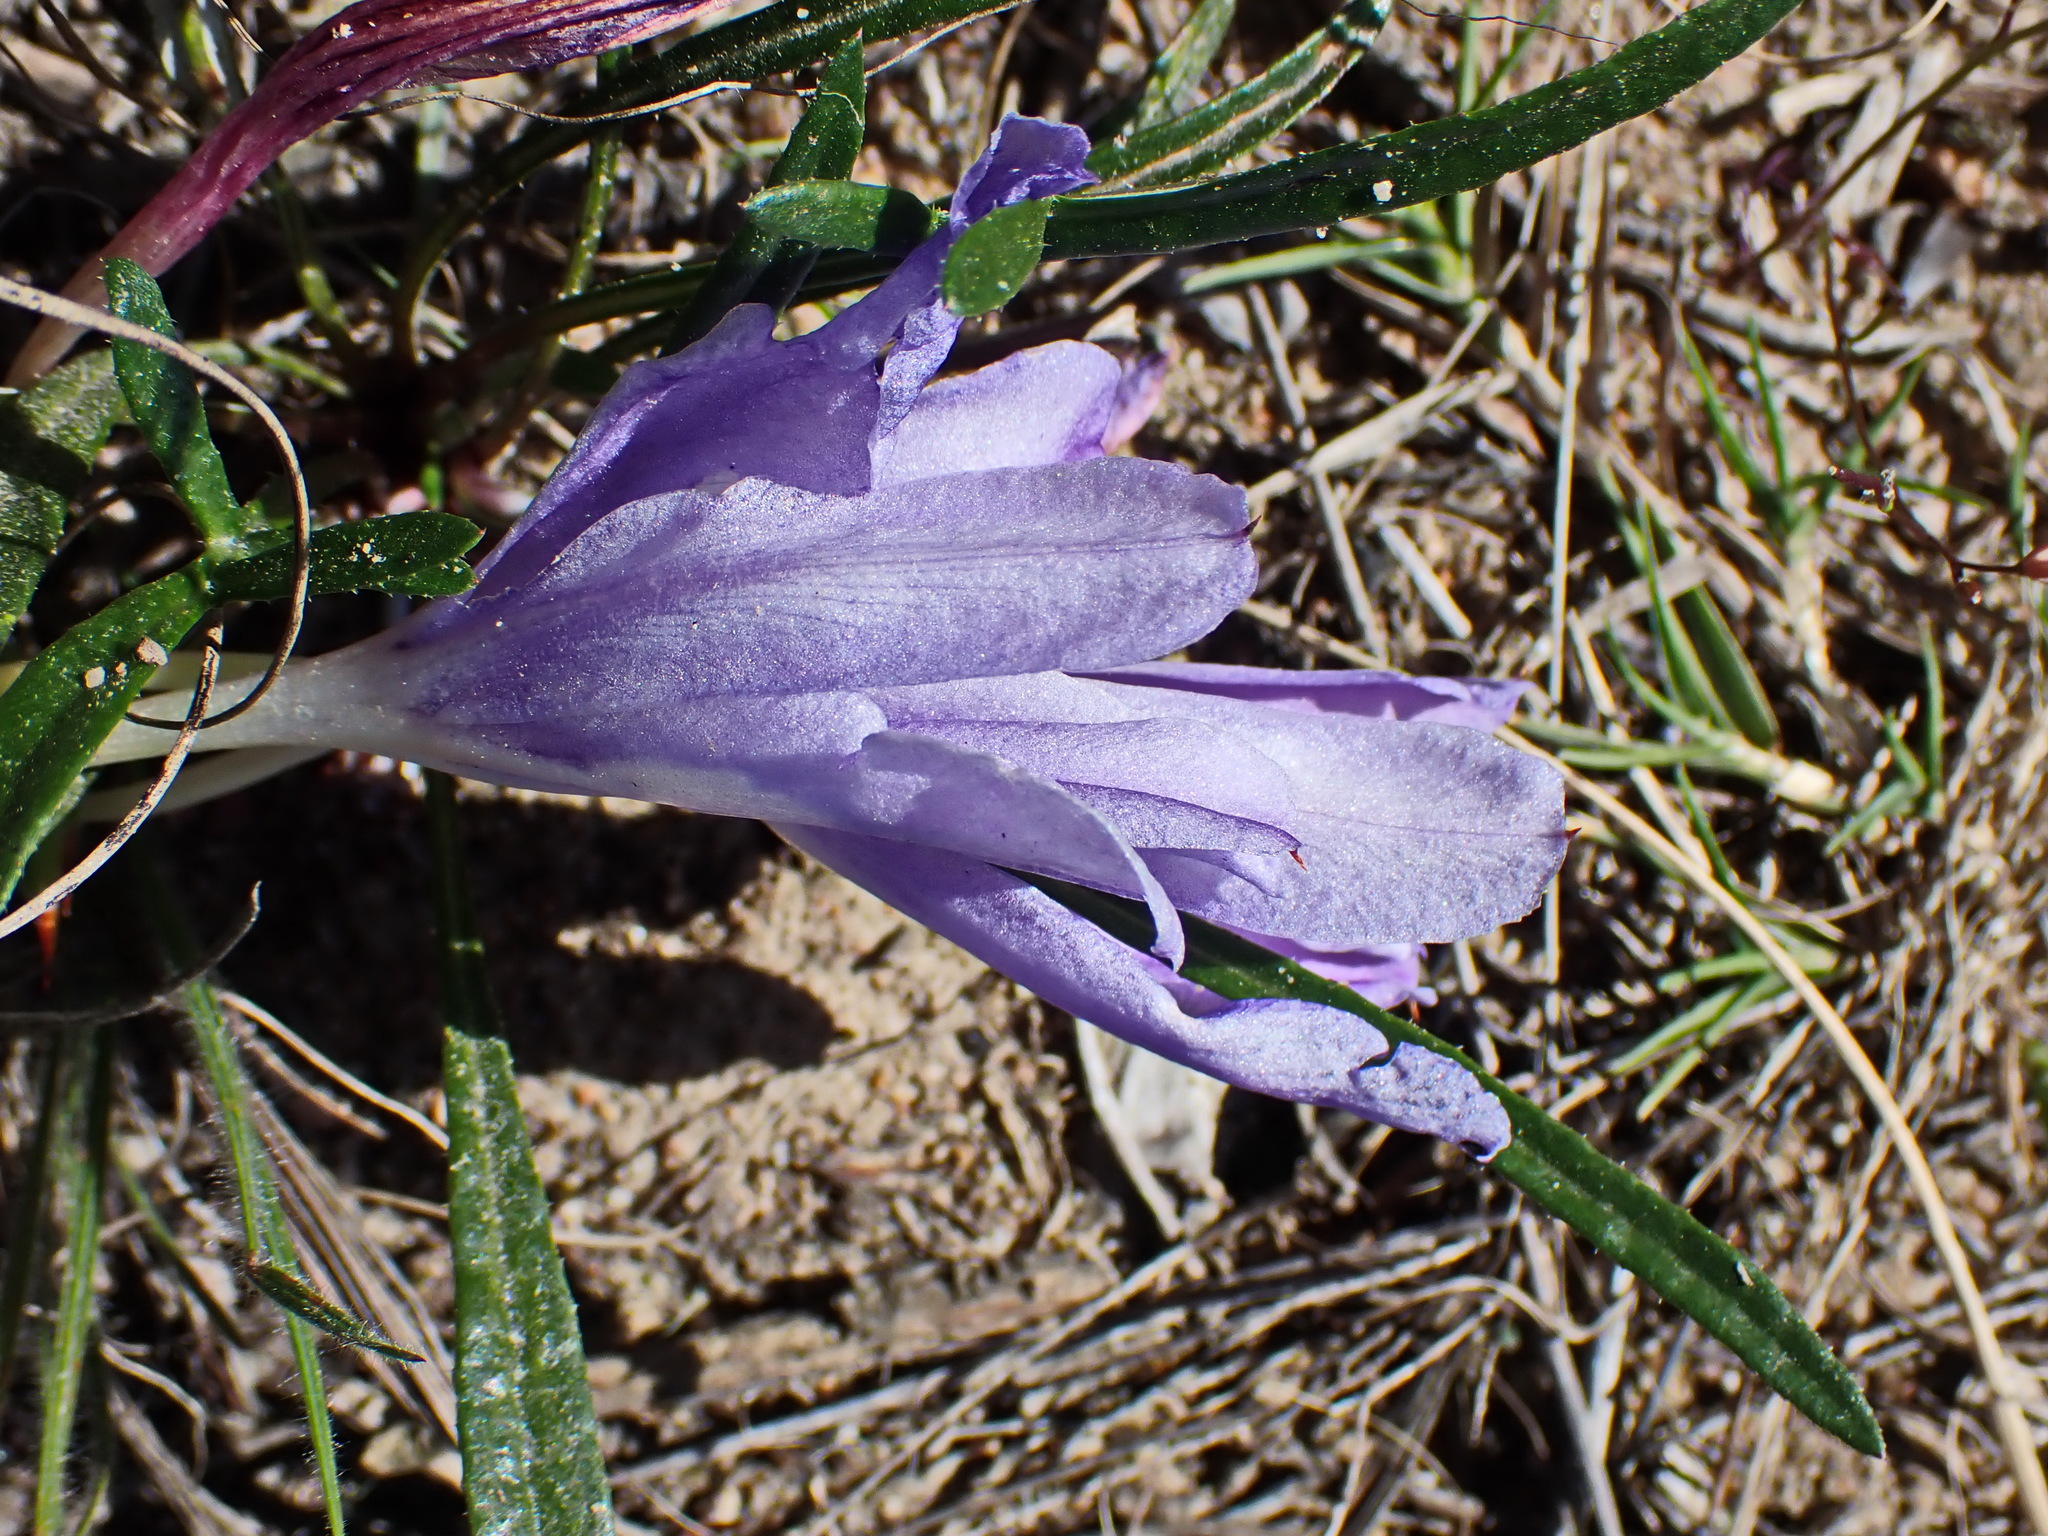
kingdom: Plantae
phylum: Tracheophyta
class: Liliopsida
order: Asparagales
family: Iridaceae
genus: Babiana
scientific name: Babiana sambucina
